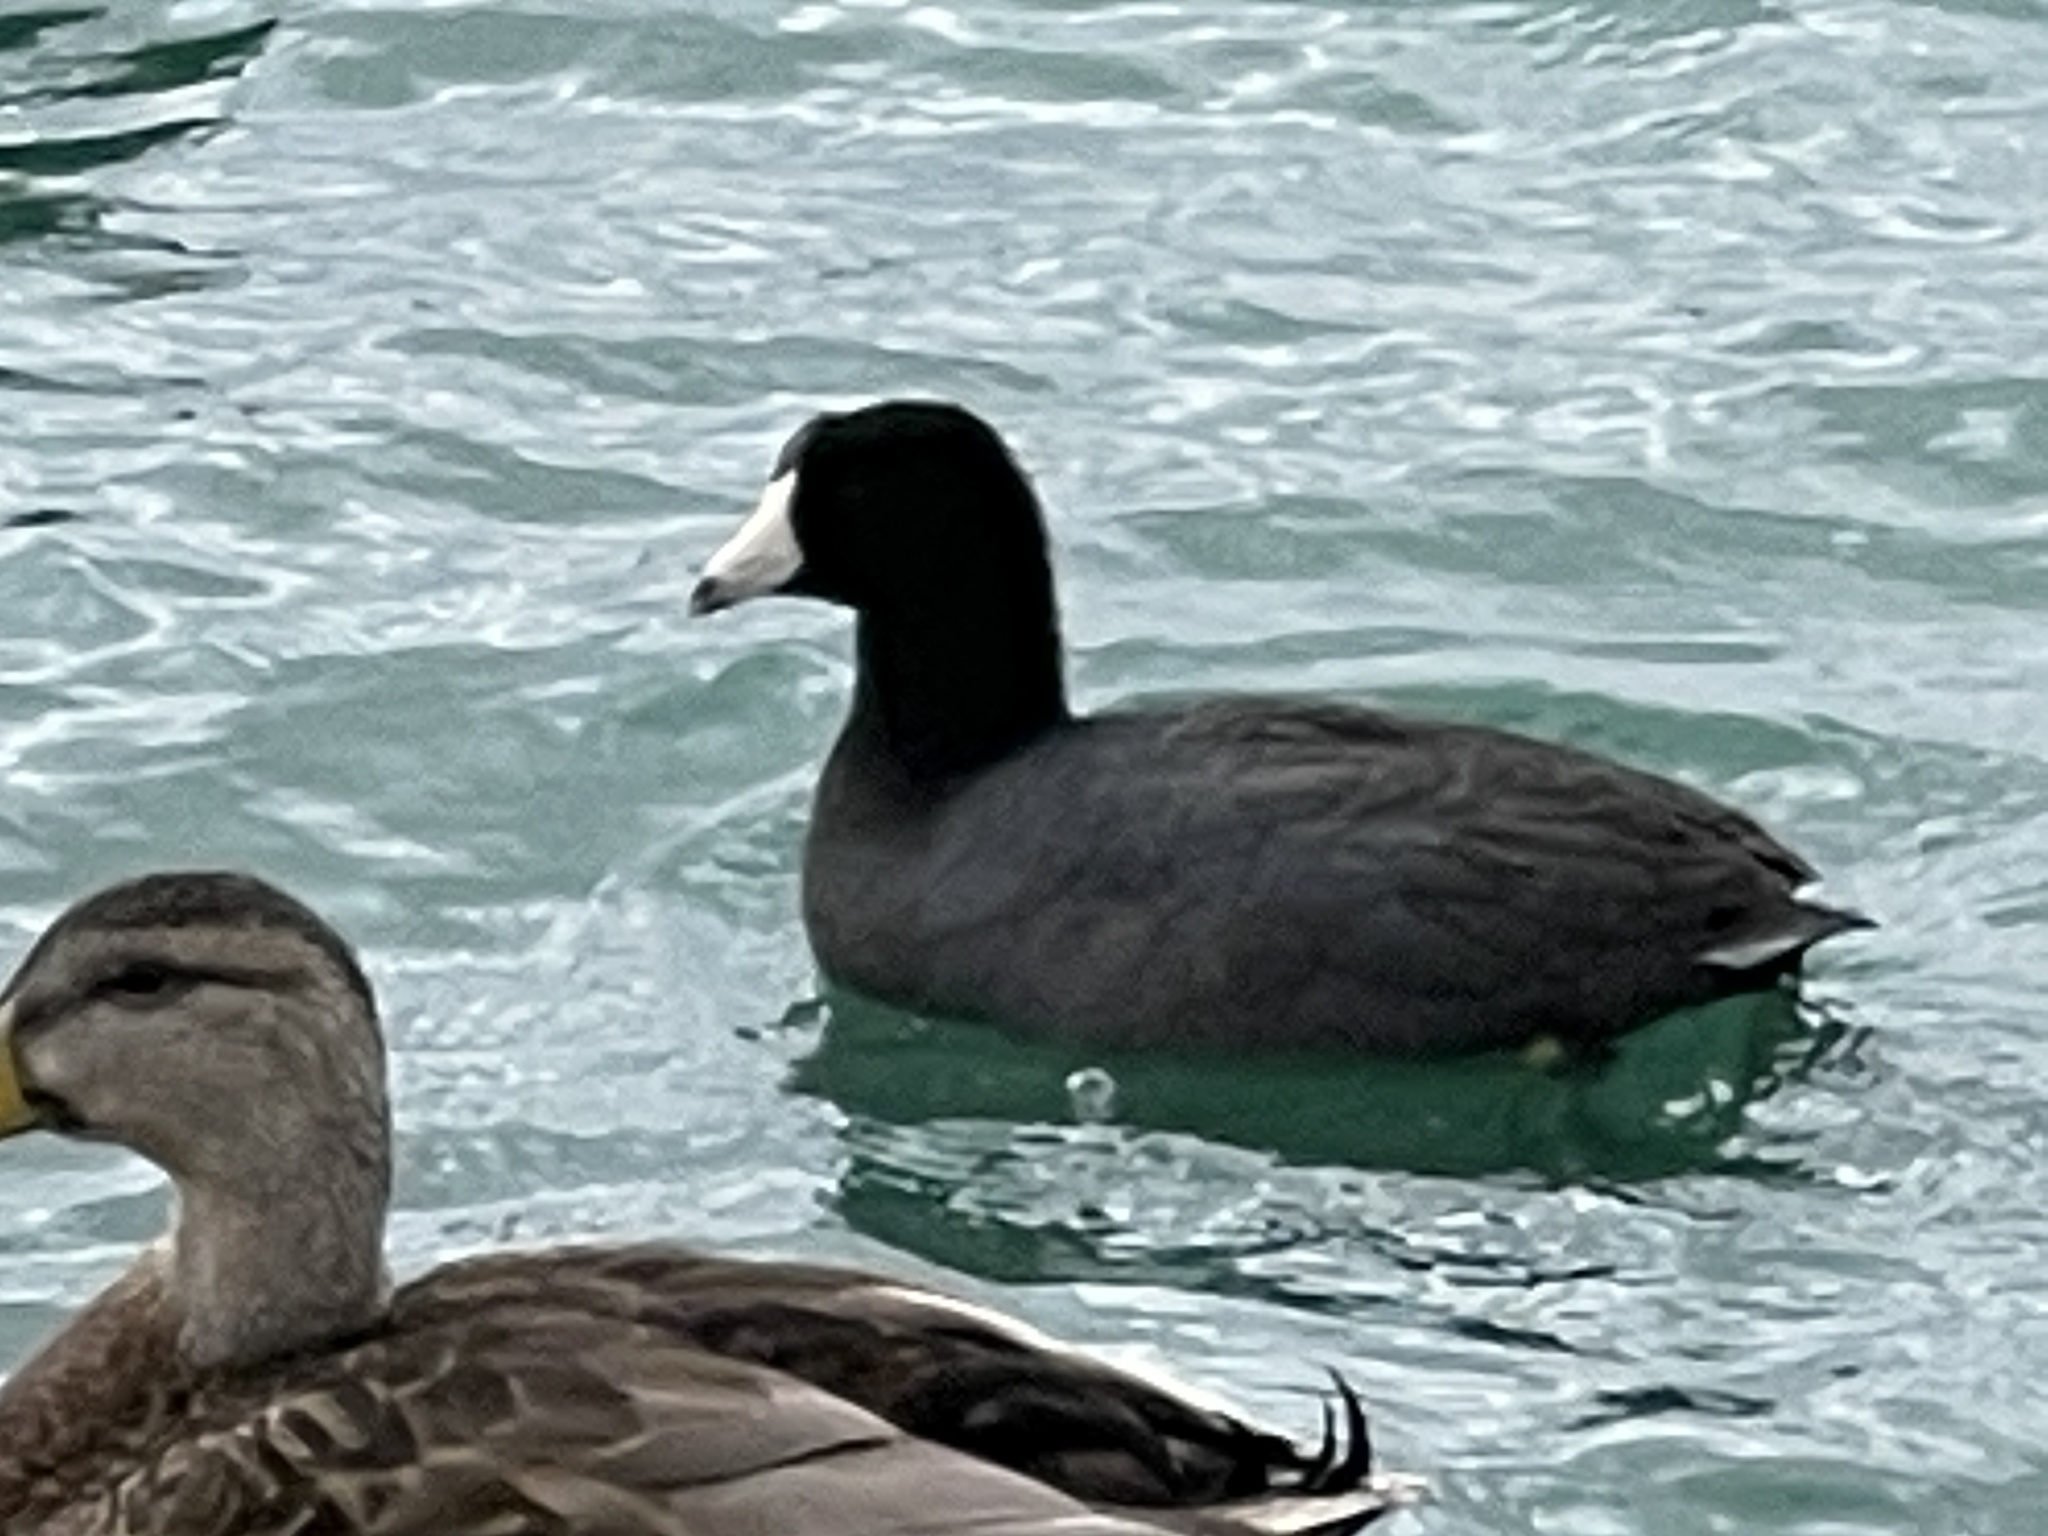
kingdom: Animalia
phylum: Chordata
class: Aves
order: Gruiformes
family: Rallidae
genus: Fulica
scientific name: Fulica americana
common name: American coot
